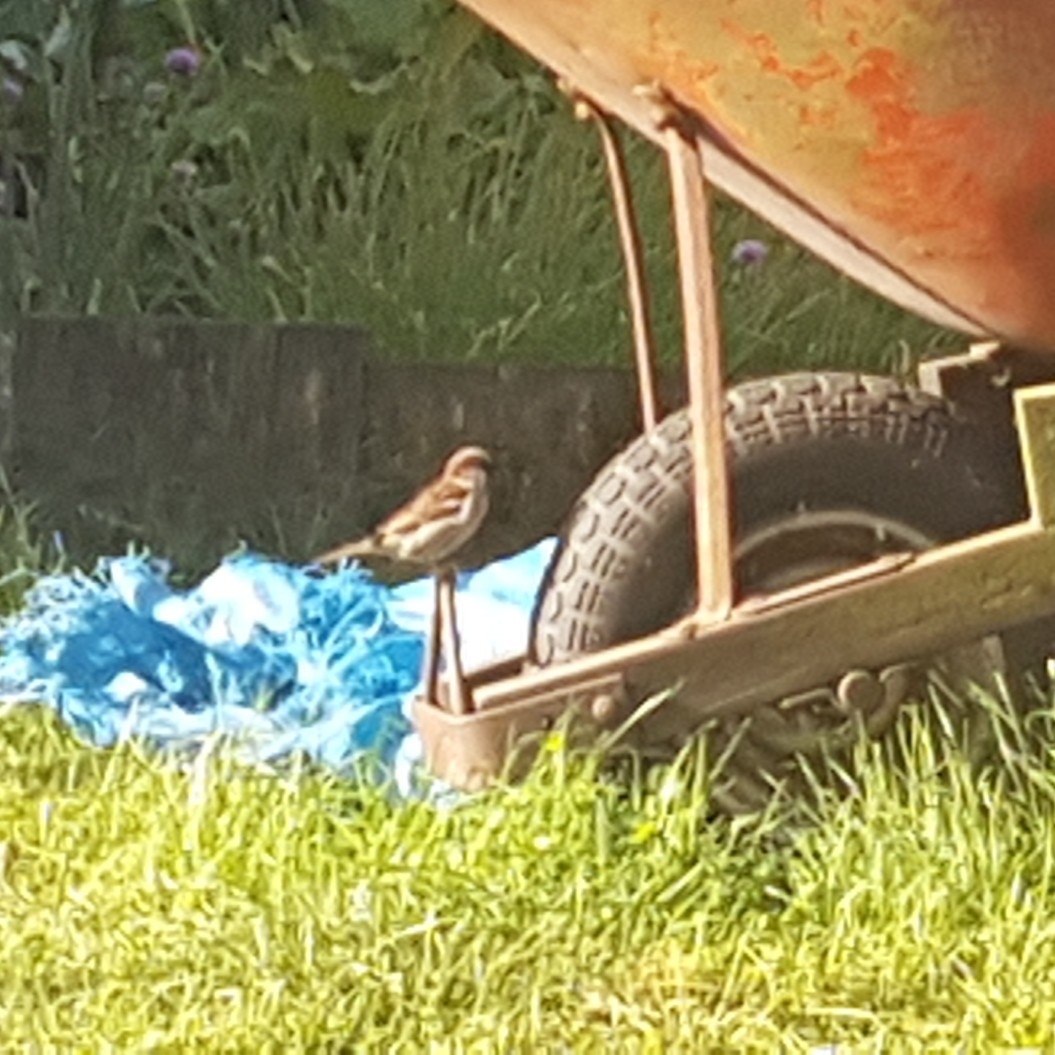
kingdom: Animalia
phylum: Chordata
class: Aves
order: Passeriformes
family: Passeridae
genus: Passer
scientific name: Passer domesticus
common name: House sparrow
